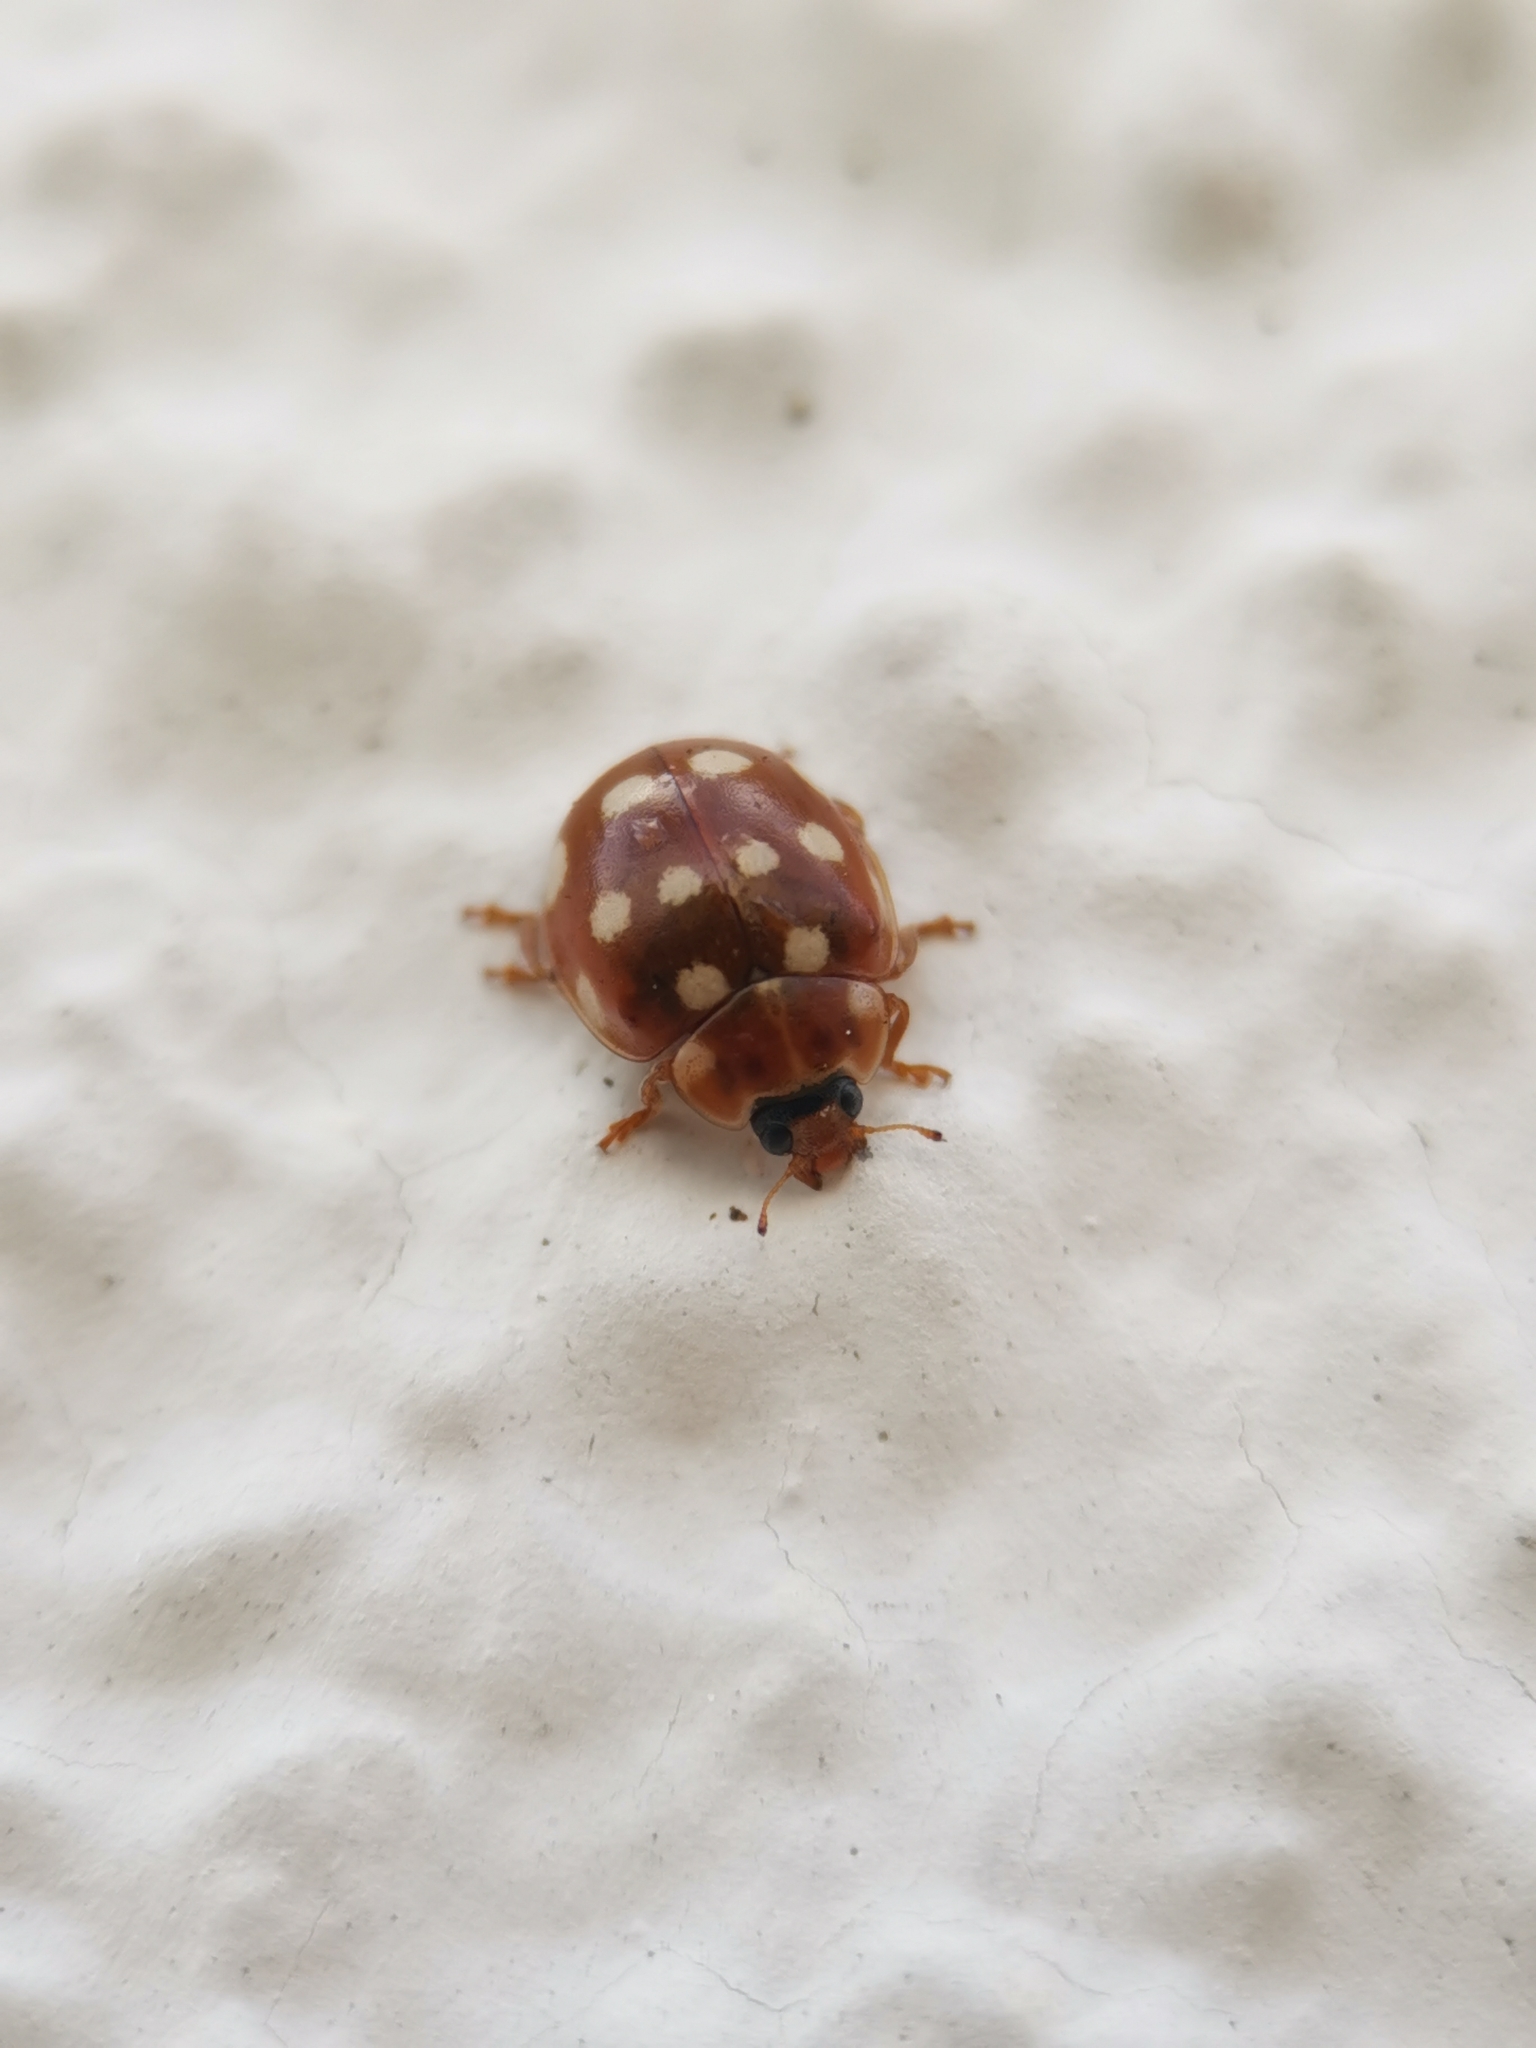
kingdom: Animalia
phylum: Arthropoda
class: Insecta
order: Coleoptera
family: Coccinellidae
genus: Calvia
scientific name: Calvia quatuordecimguttata
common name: Cream-spot ladybird
